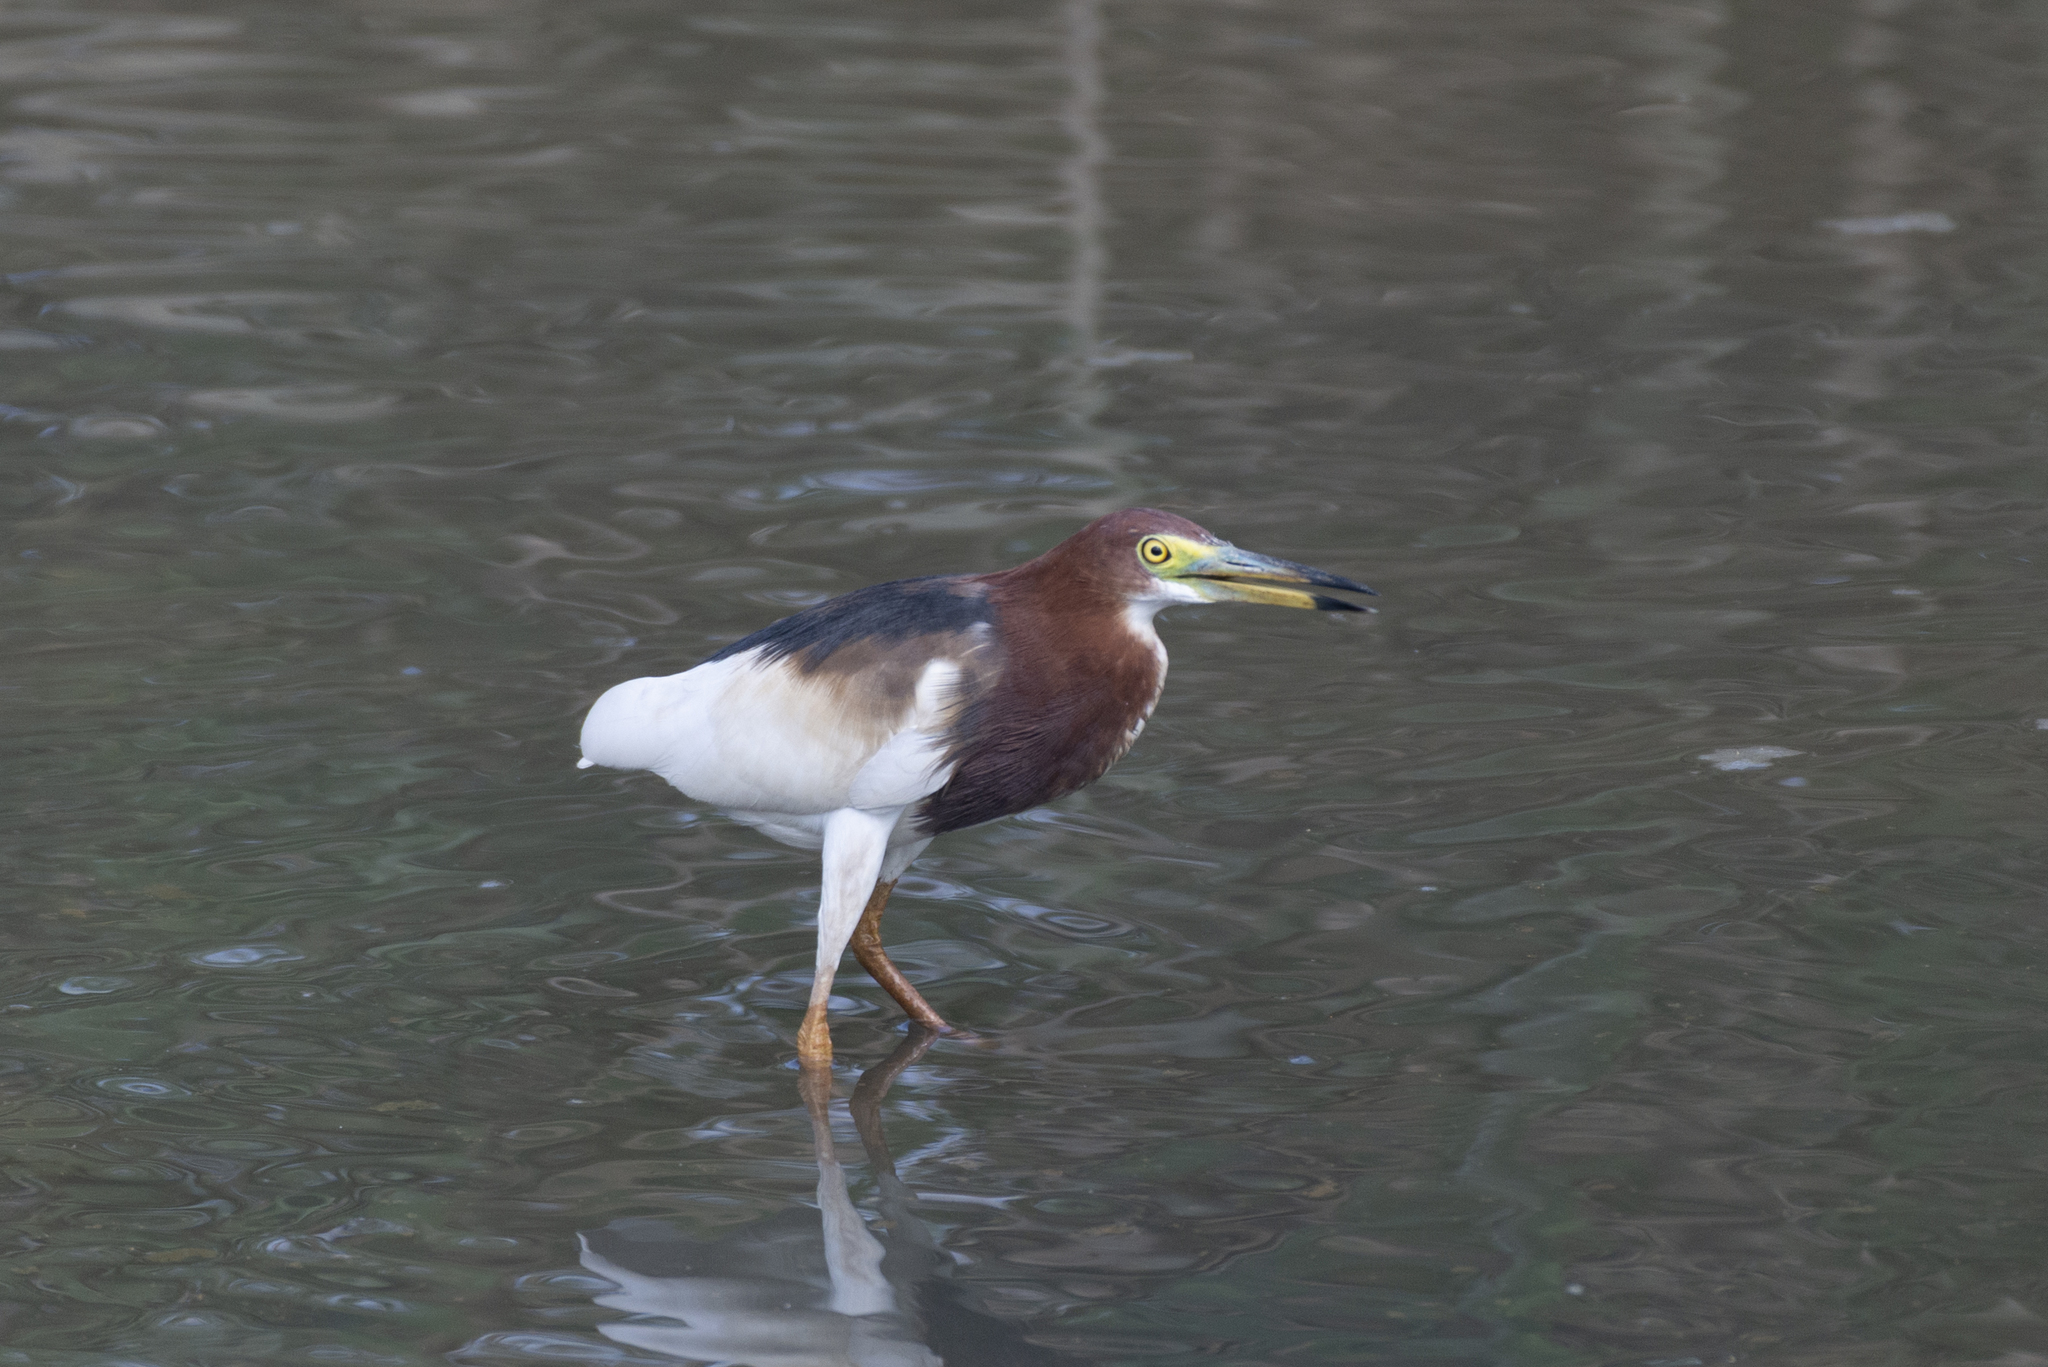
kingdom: Animalia
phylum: Chordata
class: Aves
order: Pelecaniformes
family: Ardeidae
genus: Ardeola
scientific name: Ardeola bacchus
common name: Chinese pond heron
